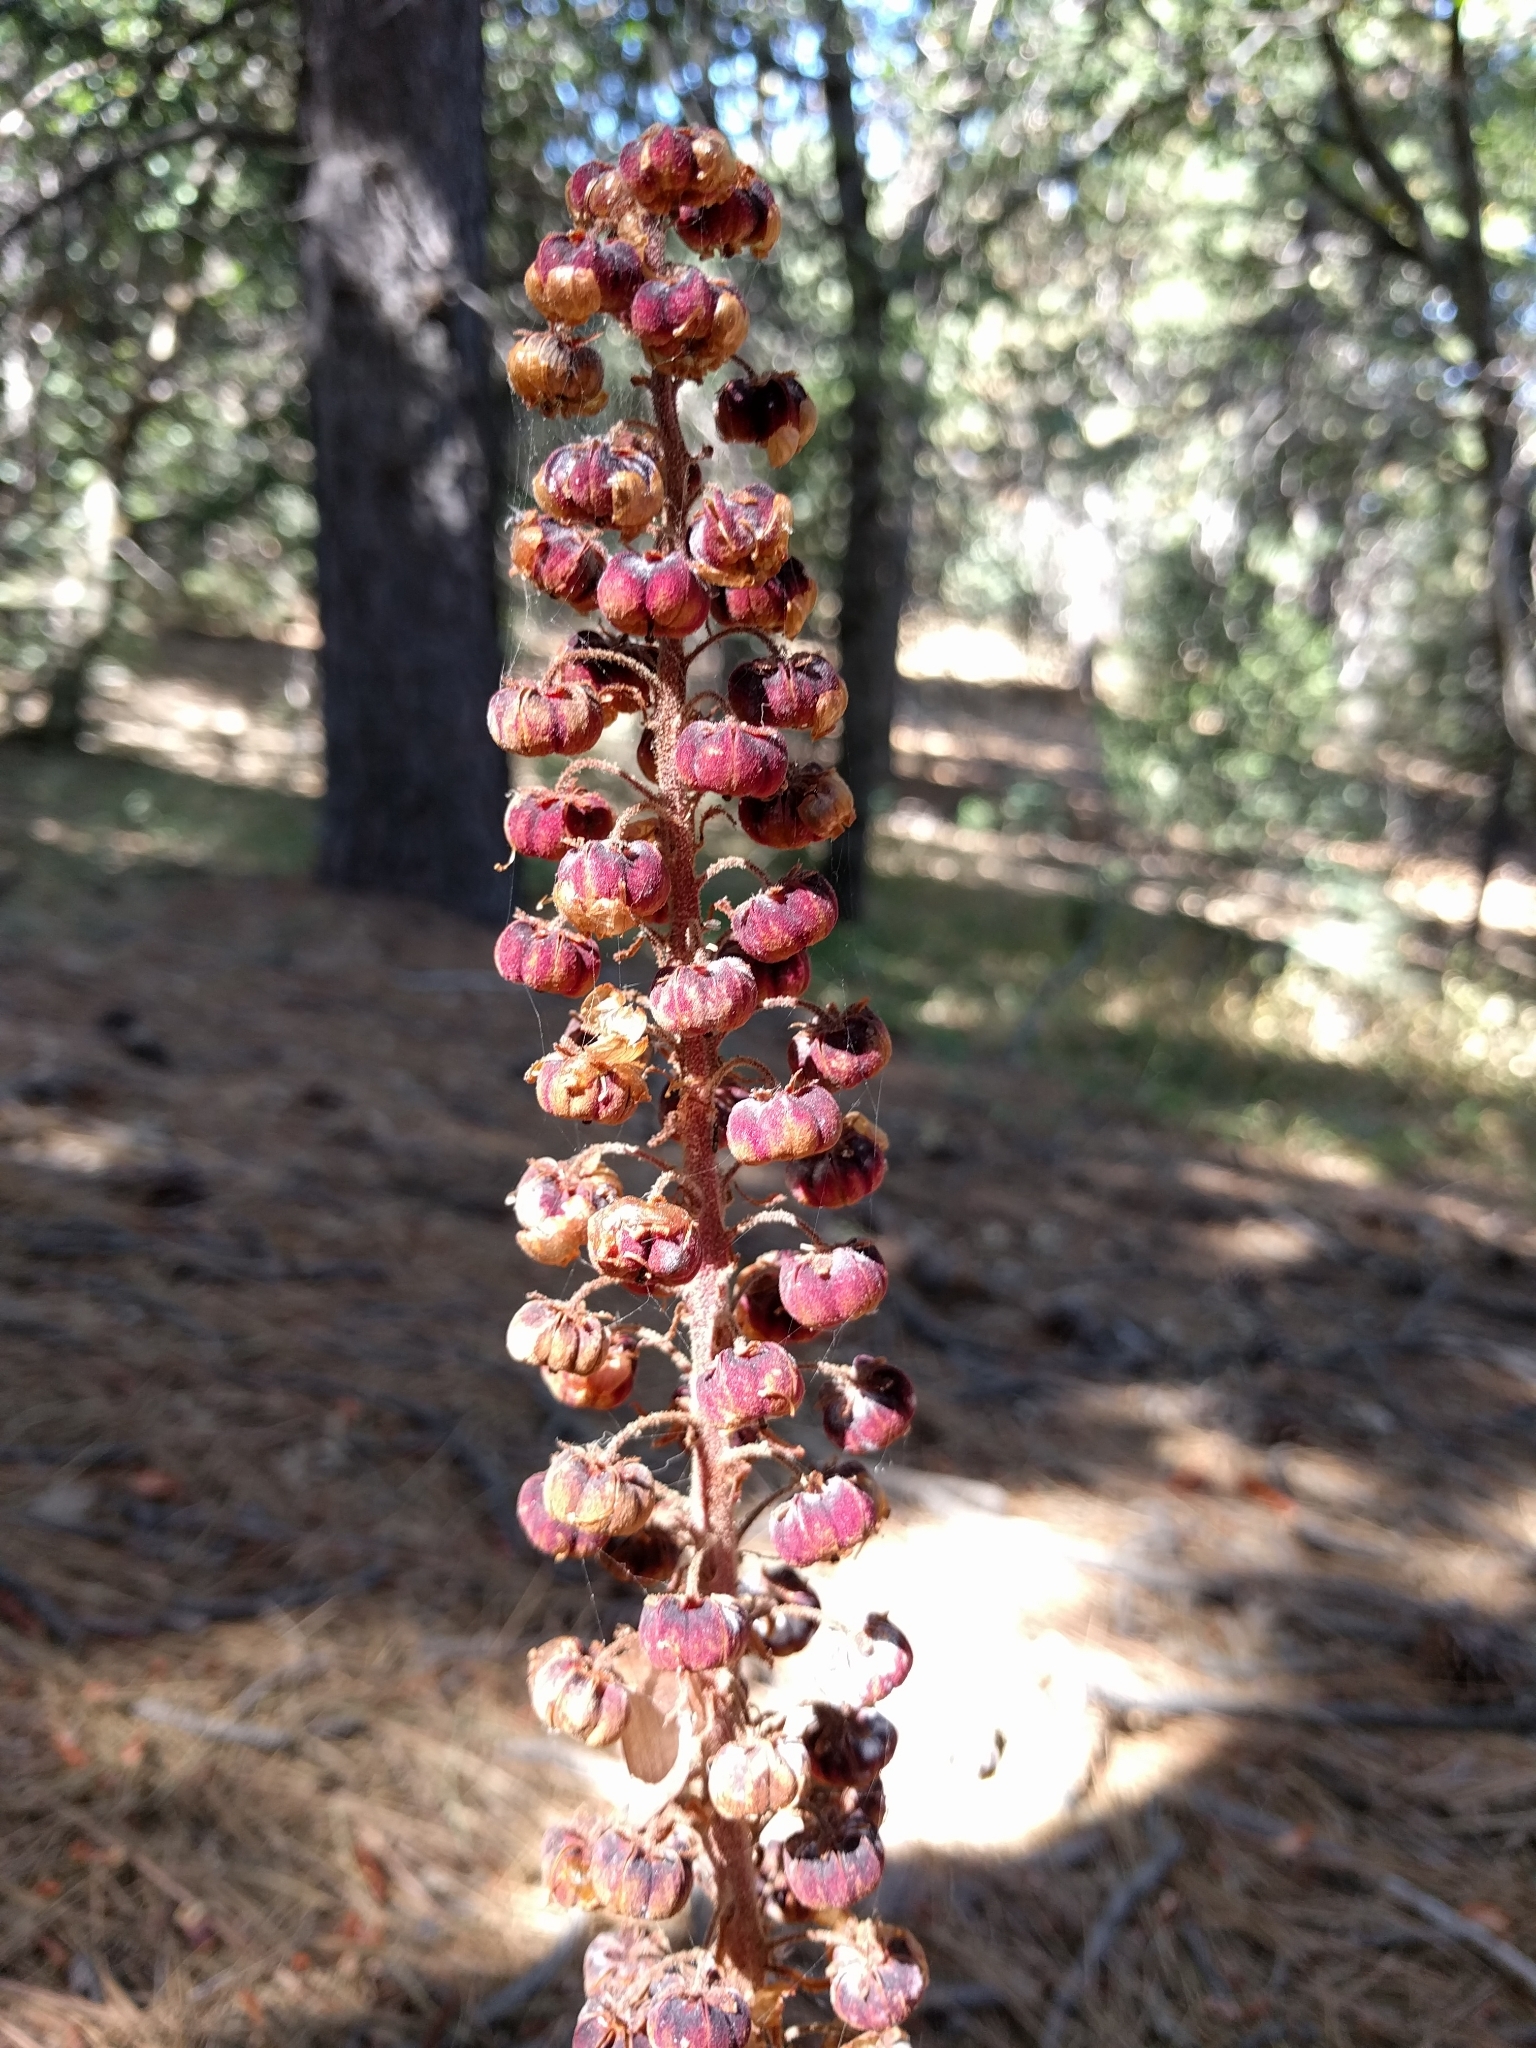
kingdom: Plantae
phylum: Tracheophyta
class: Magnoliopsida
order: Ericales
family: Ericaceae
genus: Pterospora
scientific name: Pterospora andromedea
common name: Giant bird's-nest
